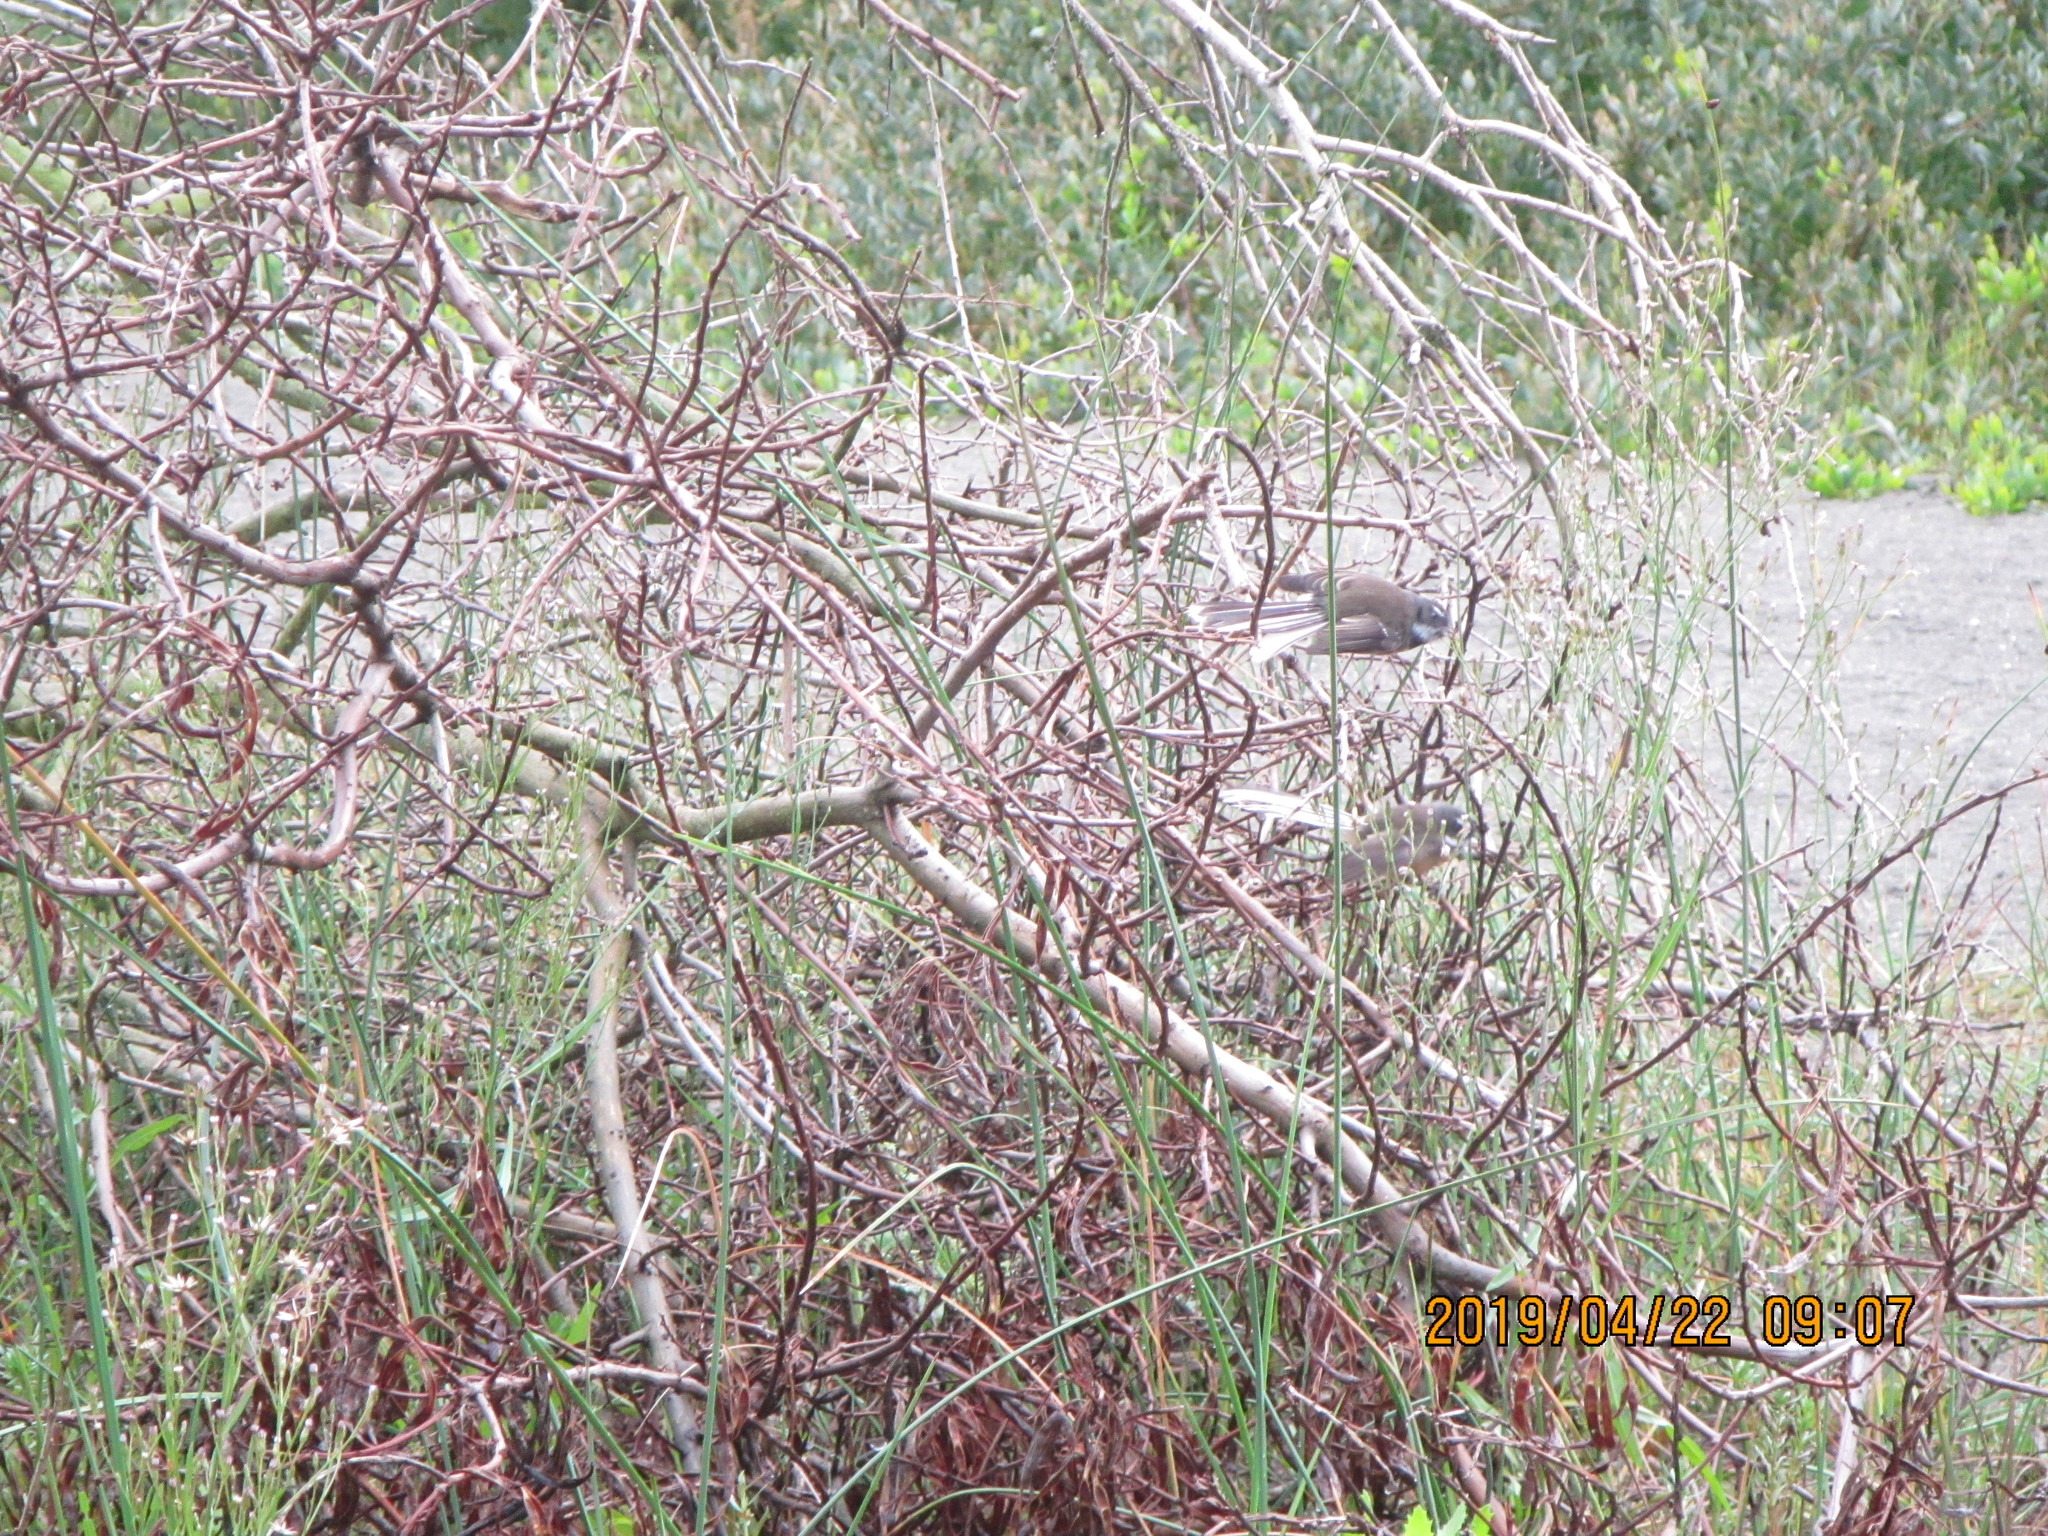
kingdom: Animalia
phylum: Chordata
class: Aves
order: Passeriformes
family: Rhipiduridae
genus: Rhipidura
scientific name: Rhipidura fuliginosa
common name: New zealand fantail
